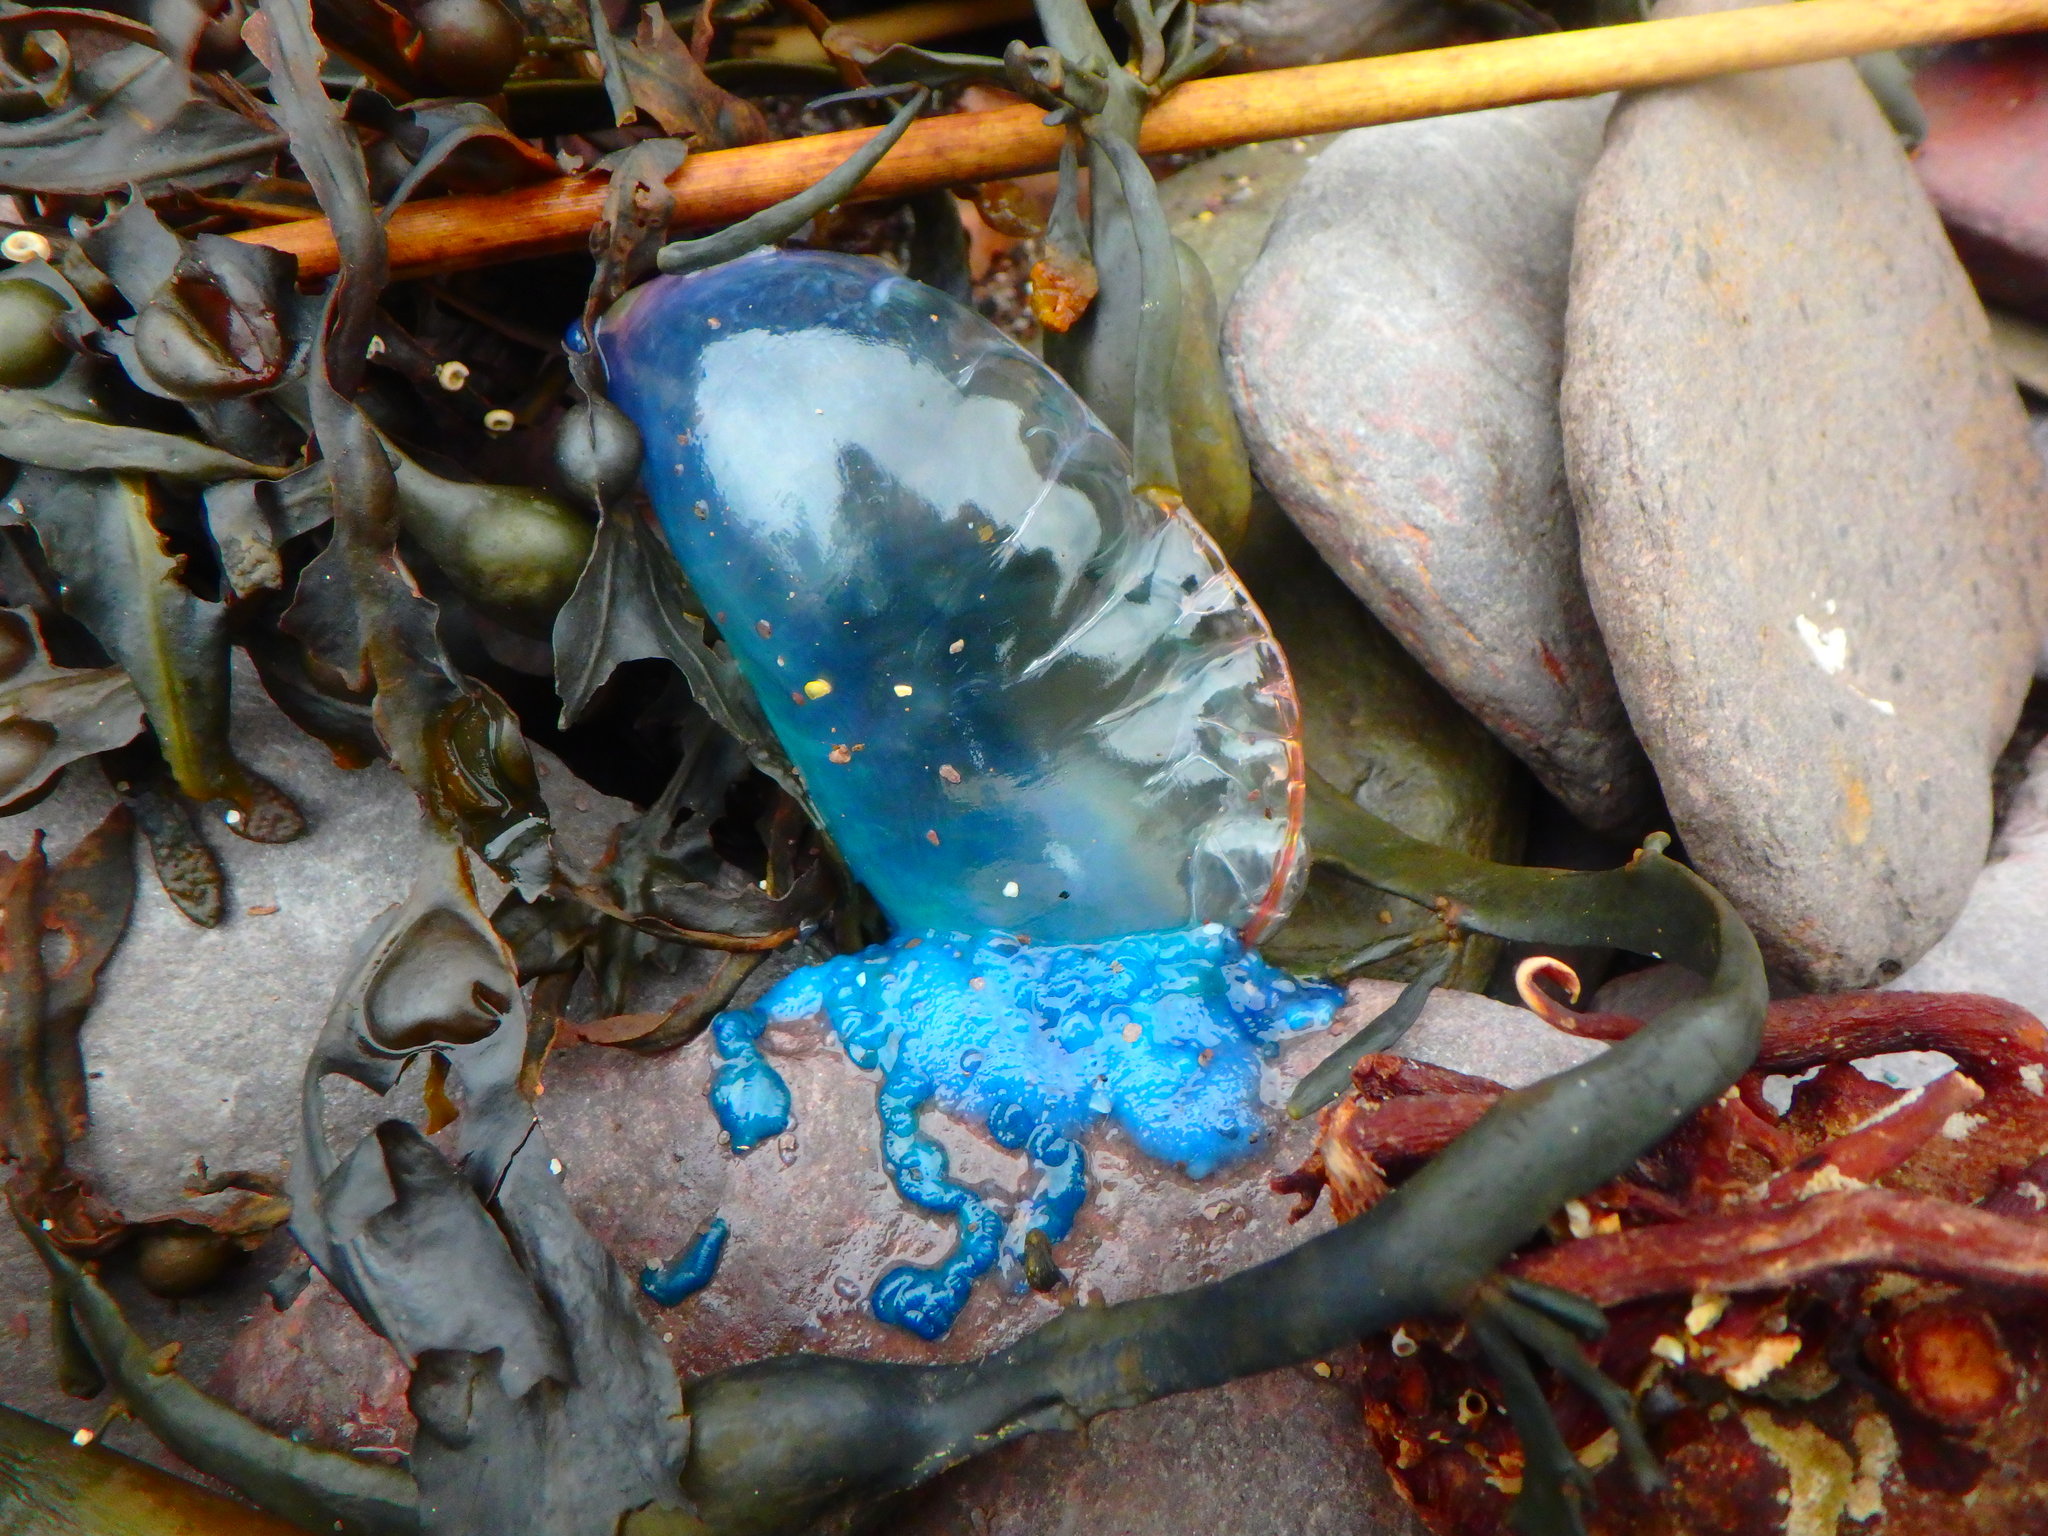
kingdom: Animalia
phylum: Cnidaria
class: Hydrozoa
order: Siphonophorae
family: Physaliidae
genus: Physalia
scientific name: Physalia physalis
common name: Portuguese man-of-war
